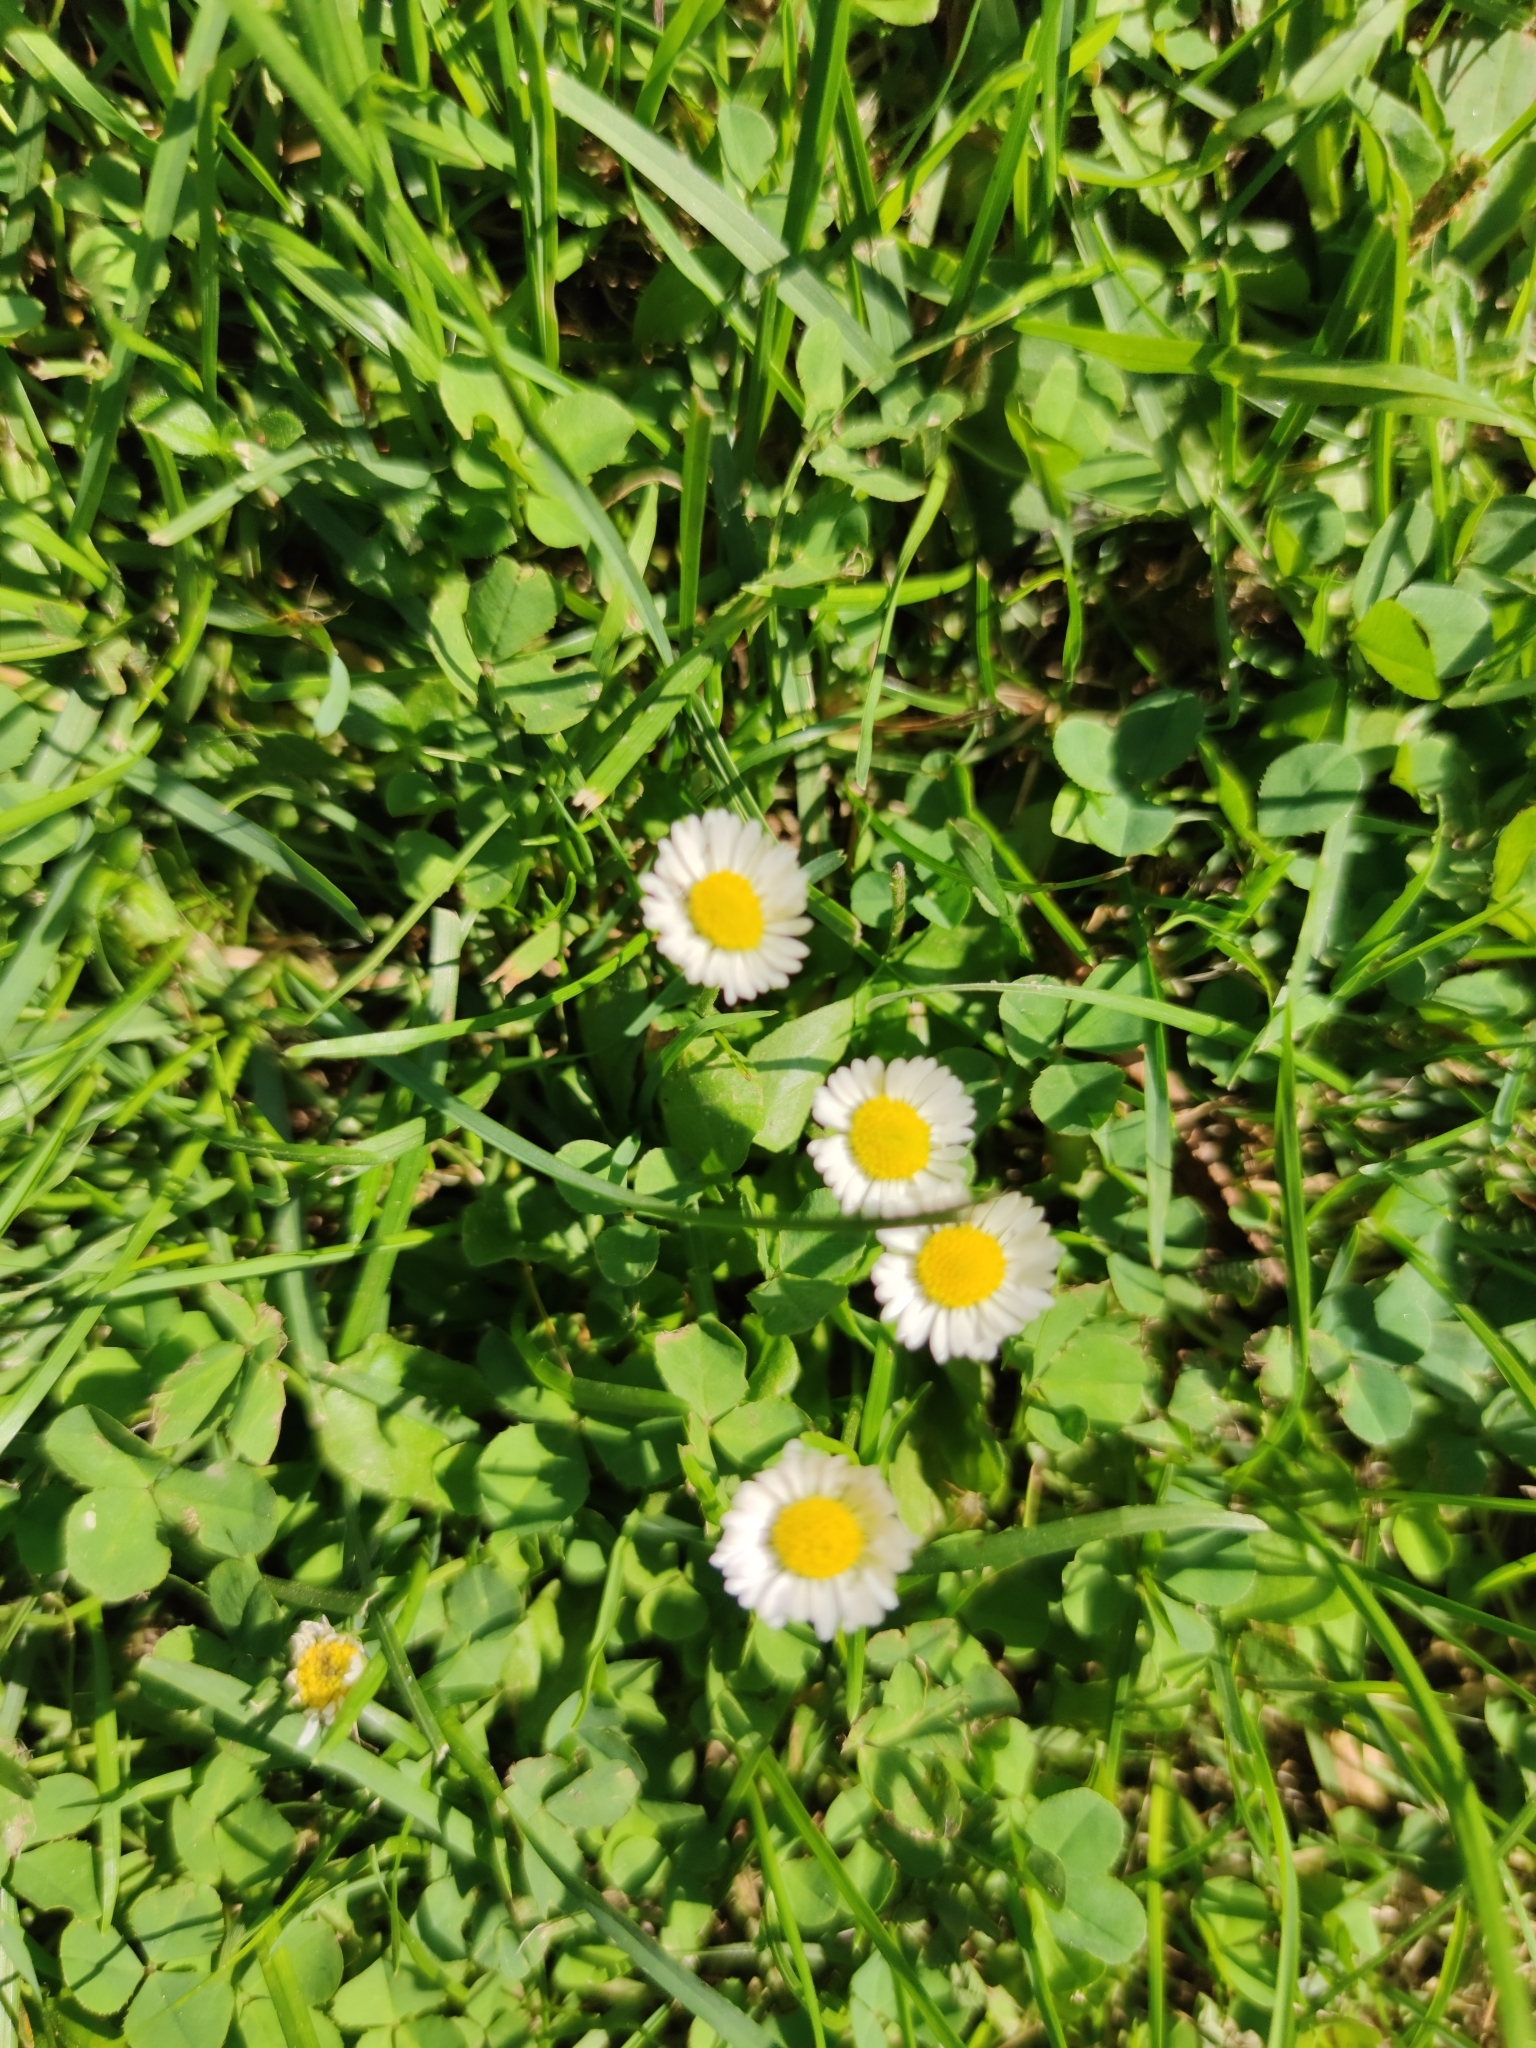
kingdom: Plantae
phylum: Tracheophyta
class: Magnoliopsida
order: Asterales
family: Asteraceae
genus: Bellis
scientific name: Bellis perennis
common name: Lawndaisy
